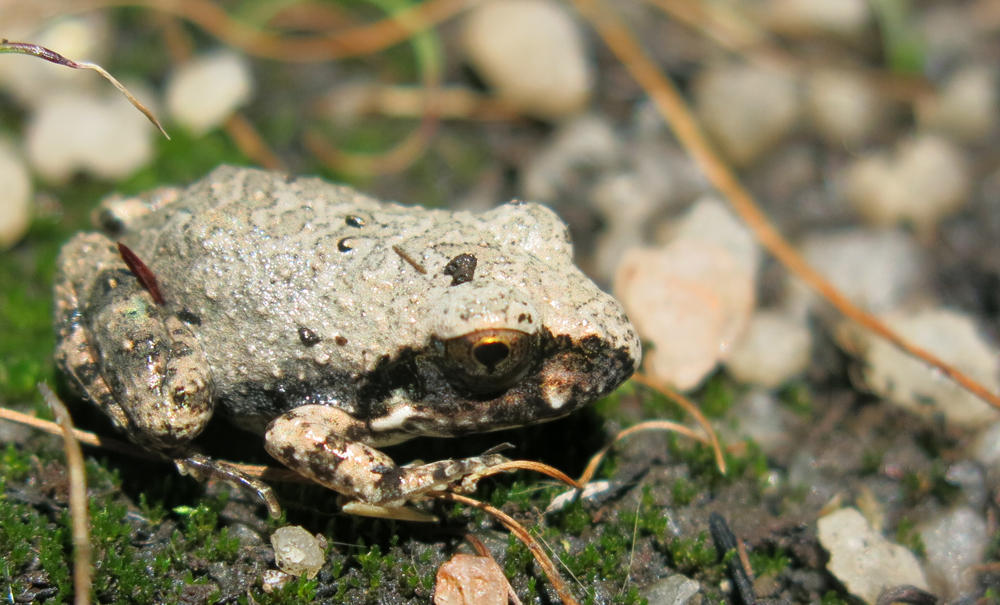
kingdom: Animalia
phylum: Chordata
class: Amphibia
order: Anura
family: Pyxicephalidae
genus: Tomopterna
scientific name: Tomopterna natalensis
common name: Natal sand frog
